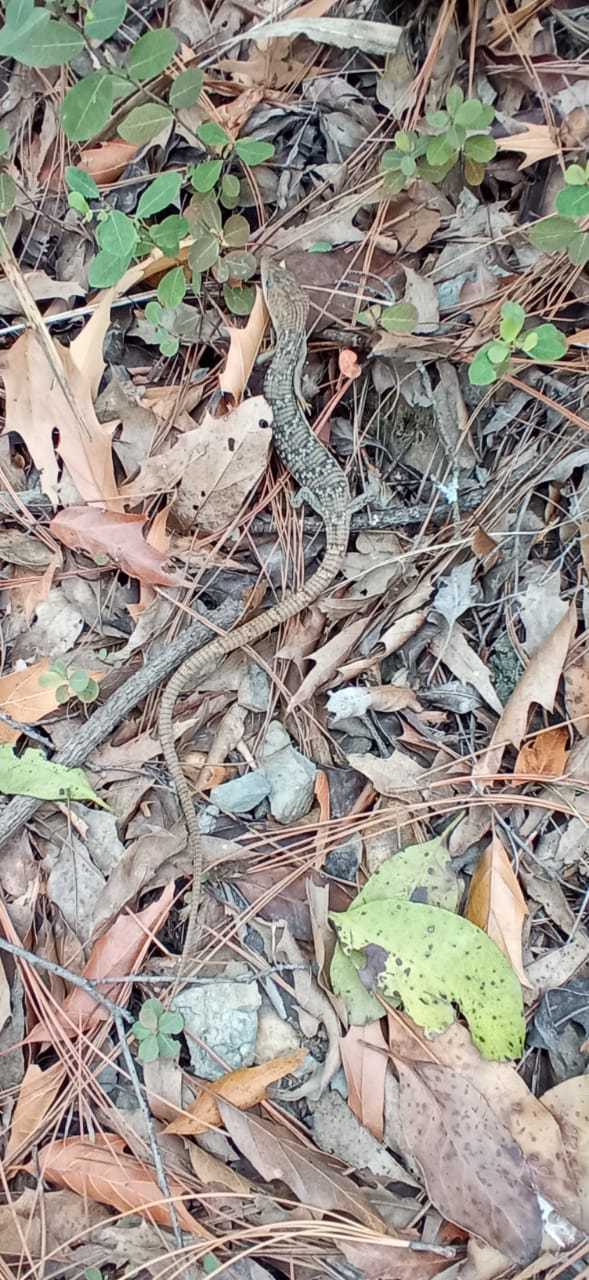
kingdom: Animalia
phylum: Chordata
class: Squamata
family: Anguidae
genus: Gerrhonotus
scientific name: Gerrhonotus infernalis
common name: Texas alligator lizard
